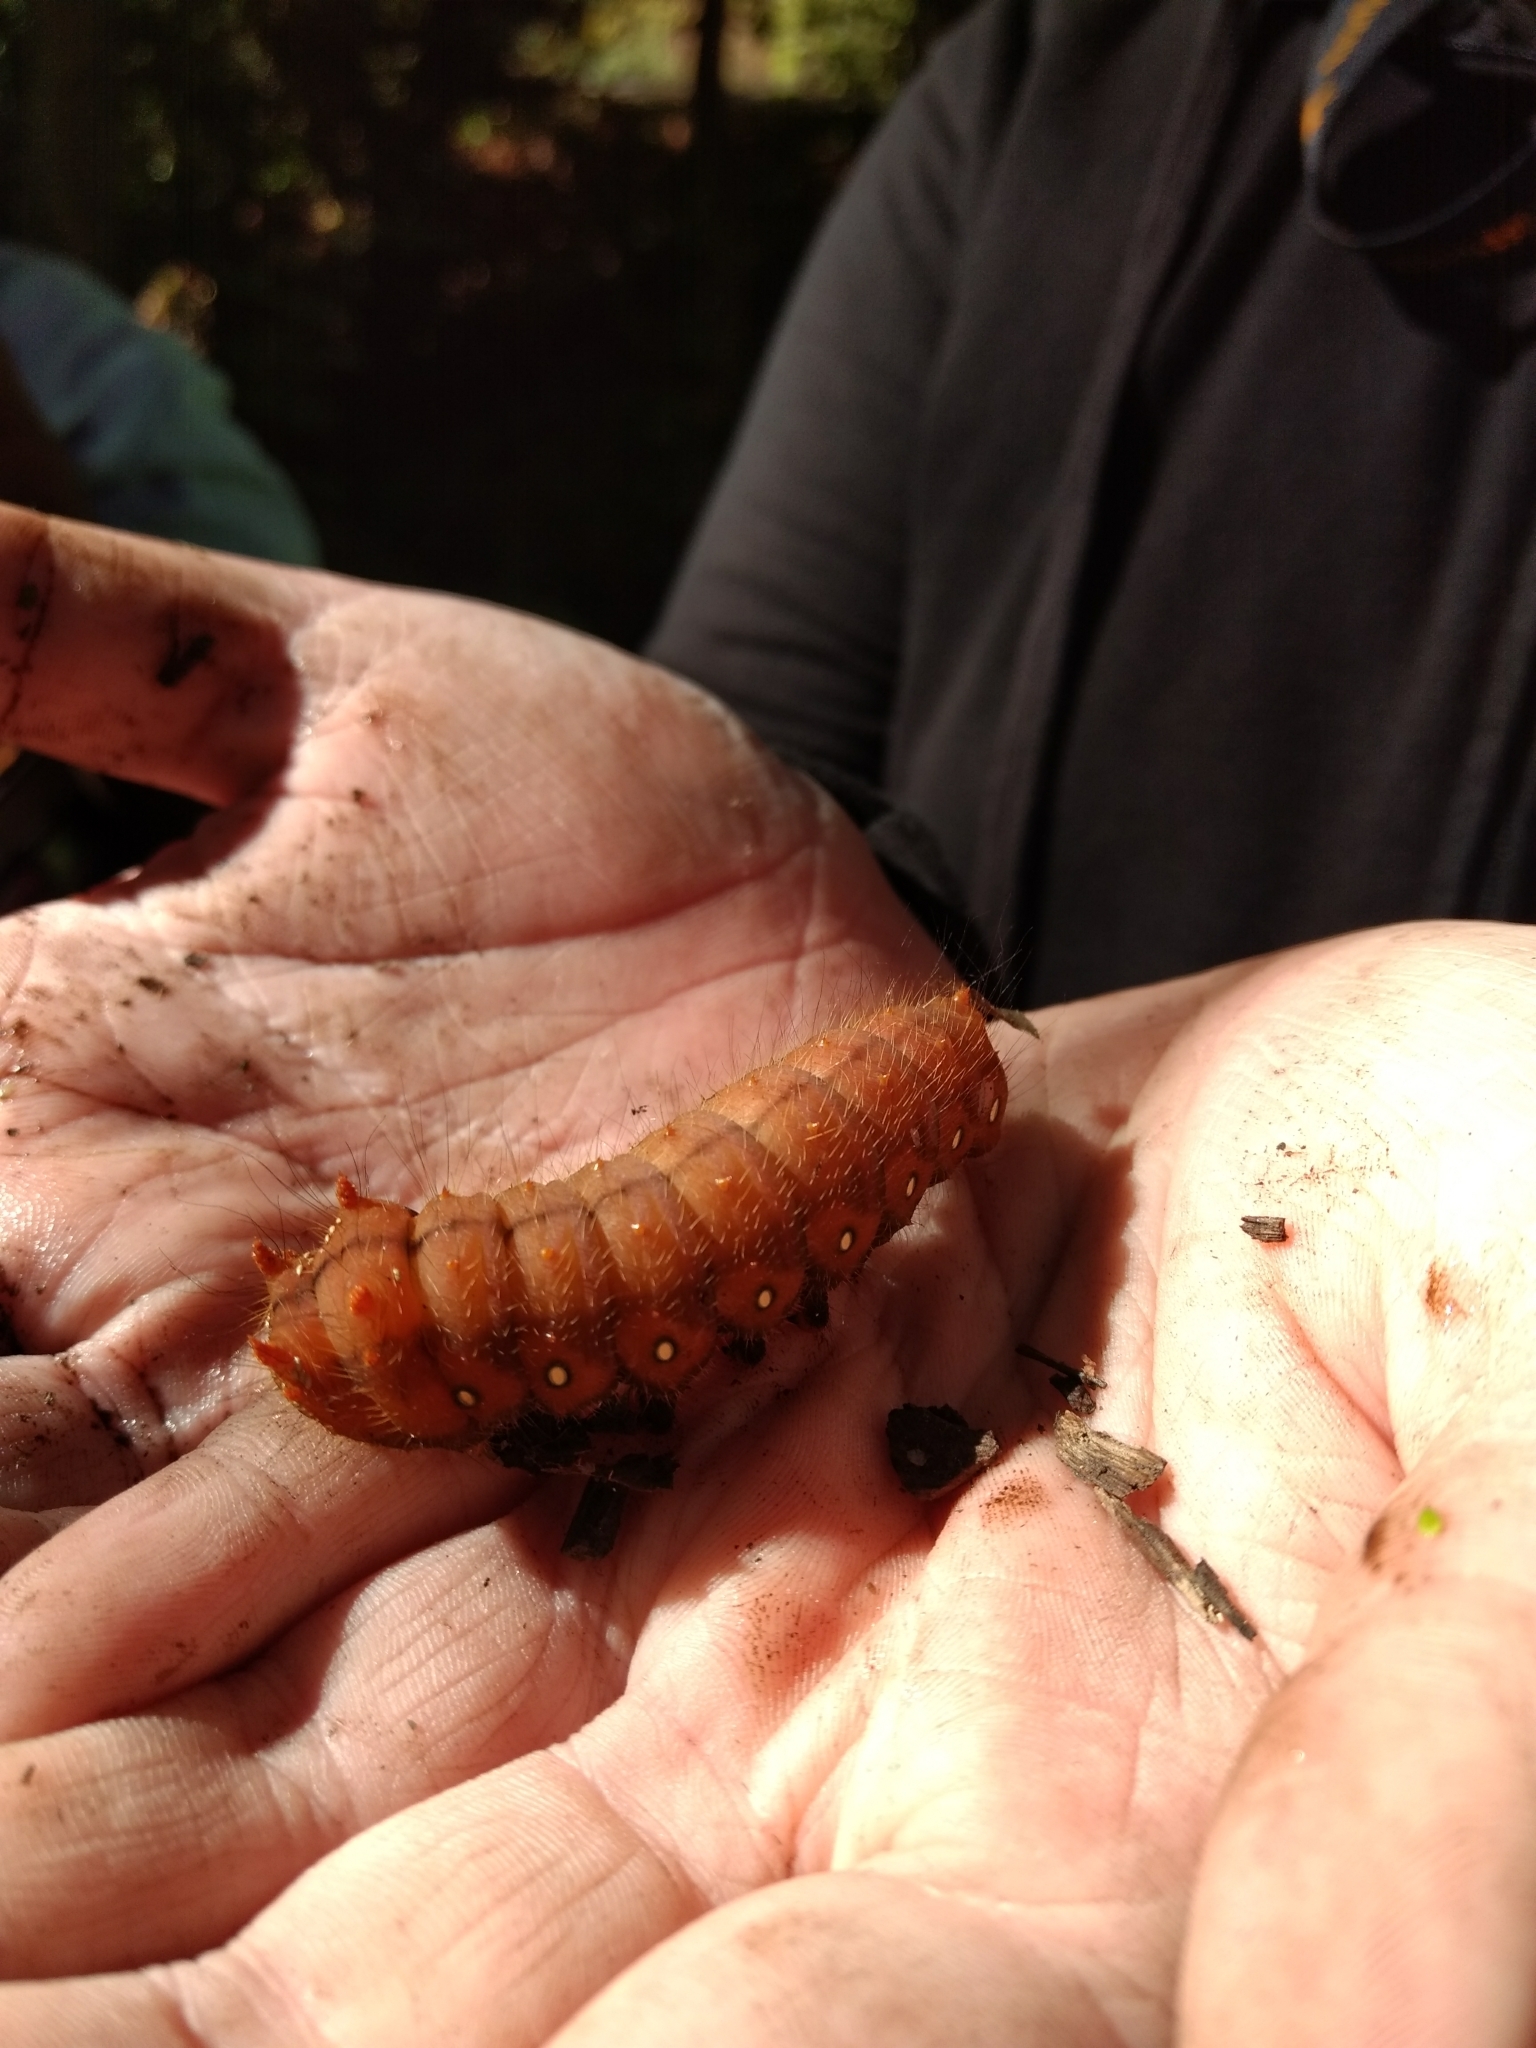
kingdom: Animalia
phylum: Arthropoda
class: Insecta
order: Lepidoptera
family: Saturniidae
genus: Eacles
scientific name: Eacles imperialis
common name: Imperial moth
